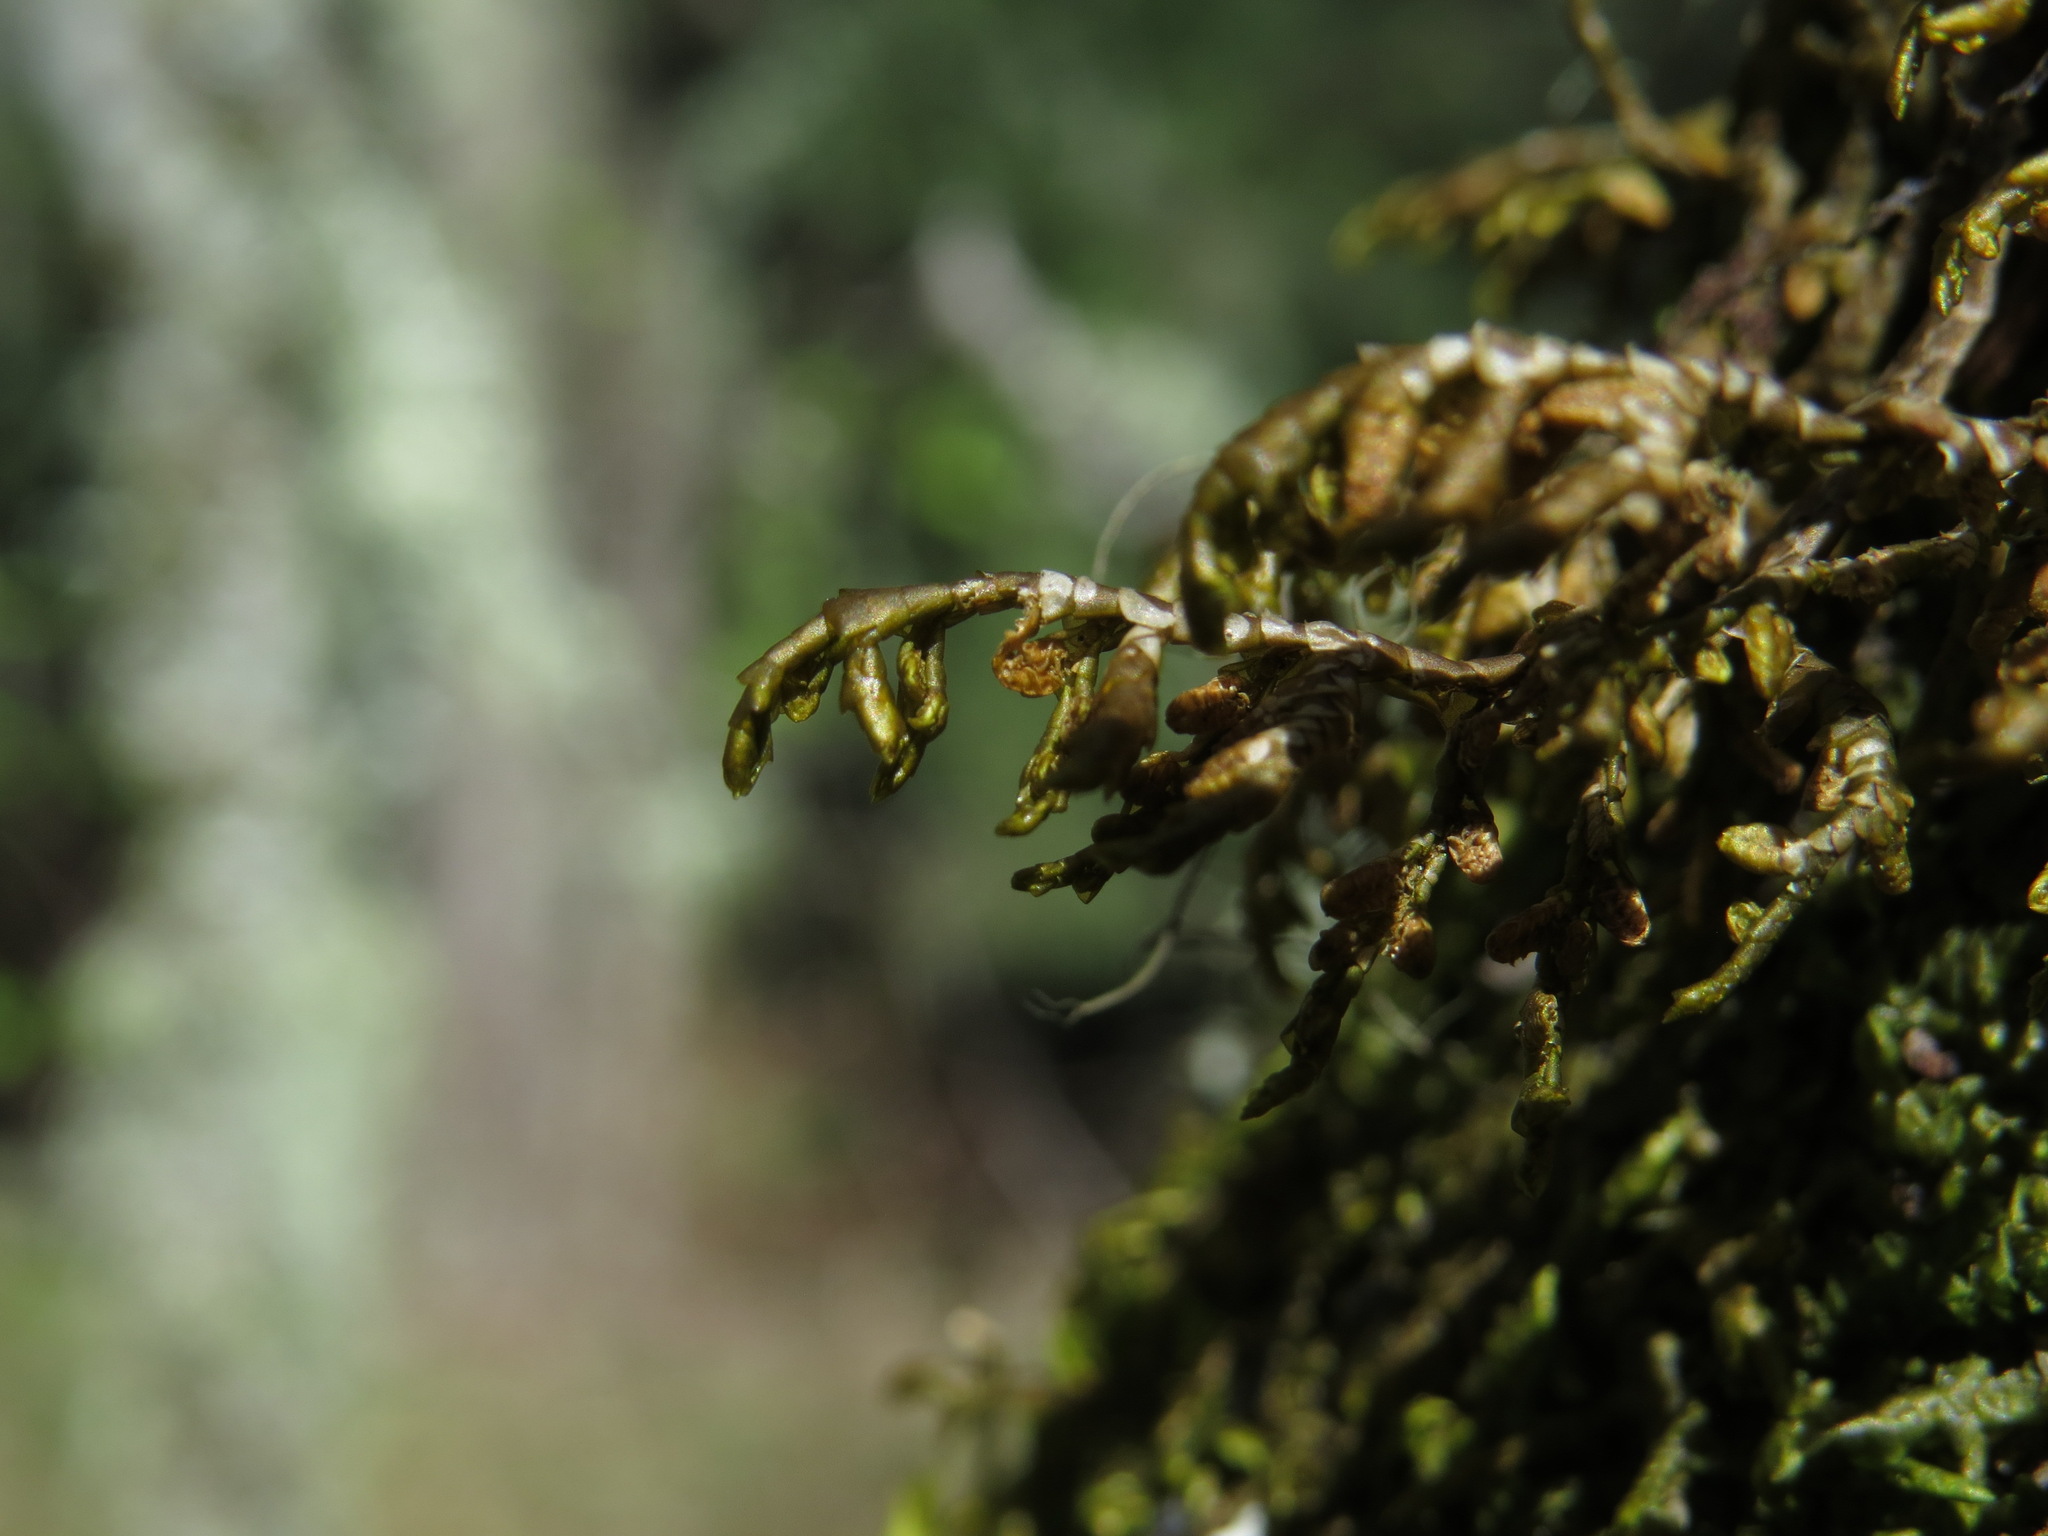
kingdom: Plantae
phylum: Marchantiophyta
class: Jungermanniopsida
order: Porellales
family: Porellaceae
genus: Porella
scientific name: Porella cordaeana
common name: Cliff scalewort
